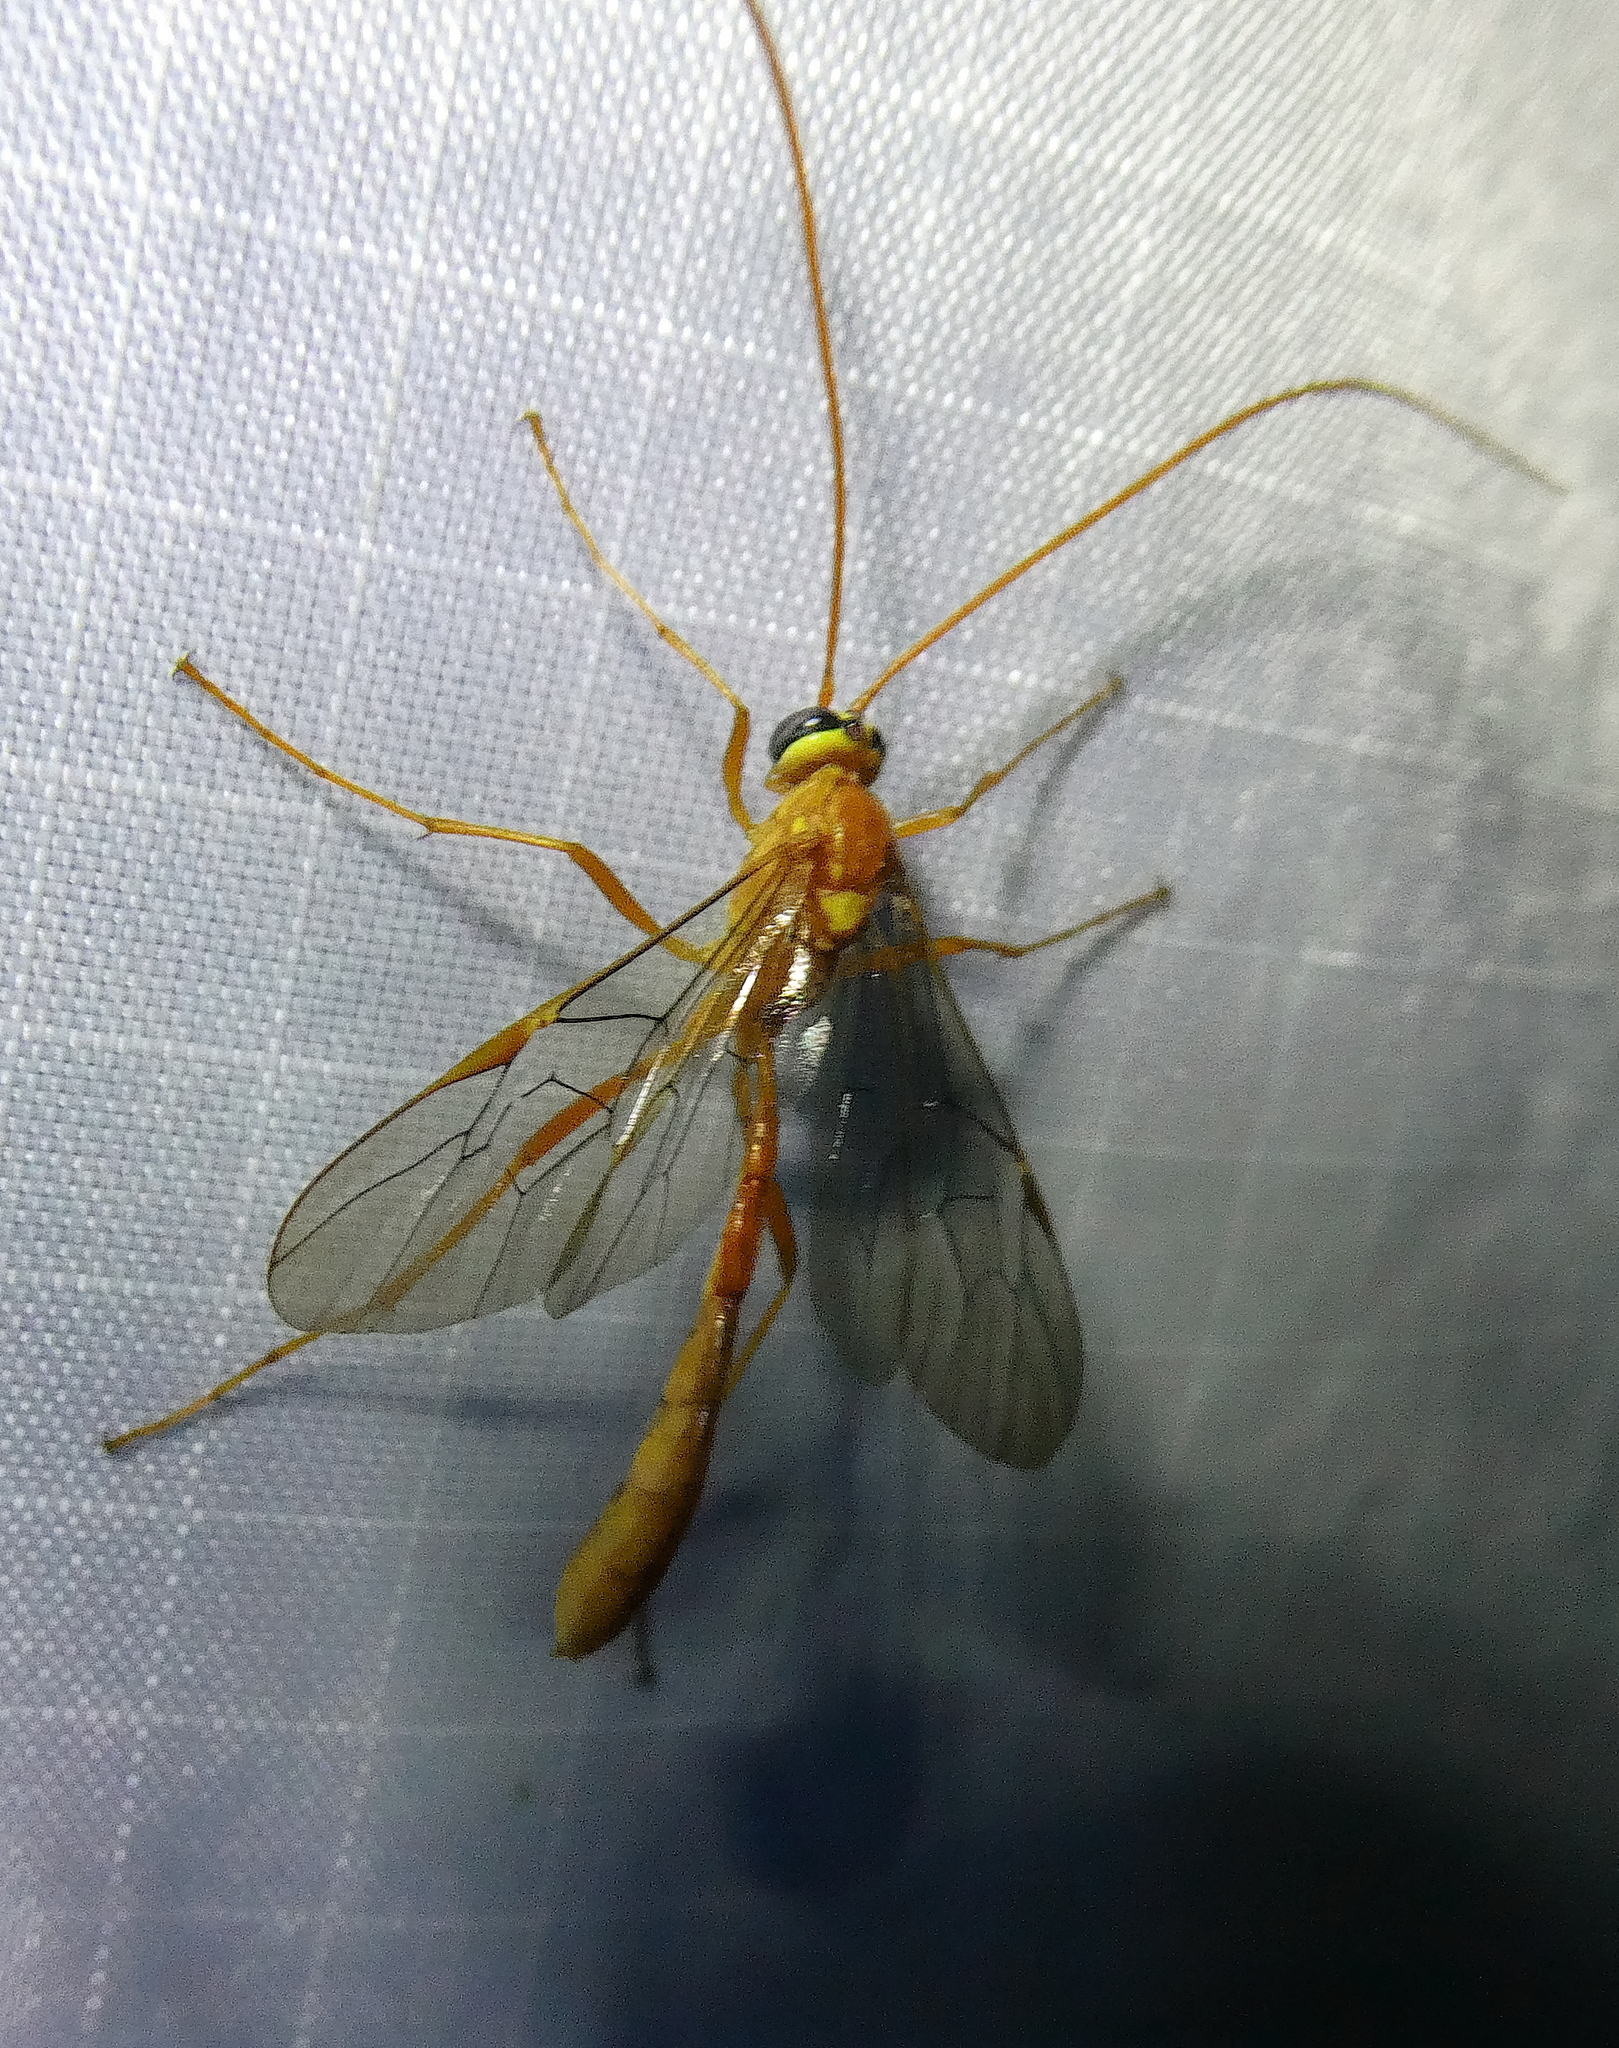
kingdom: Animalia
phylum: Arthropoda
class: Insecta
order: Hymenoptera
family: Ichneumonidae
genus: Ophion
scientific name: Ophion
